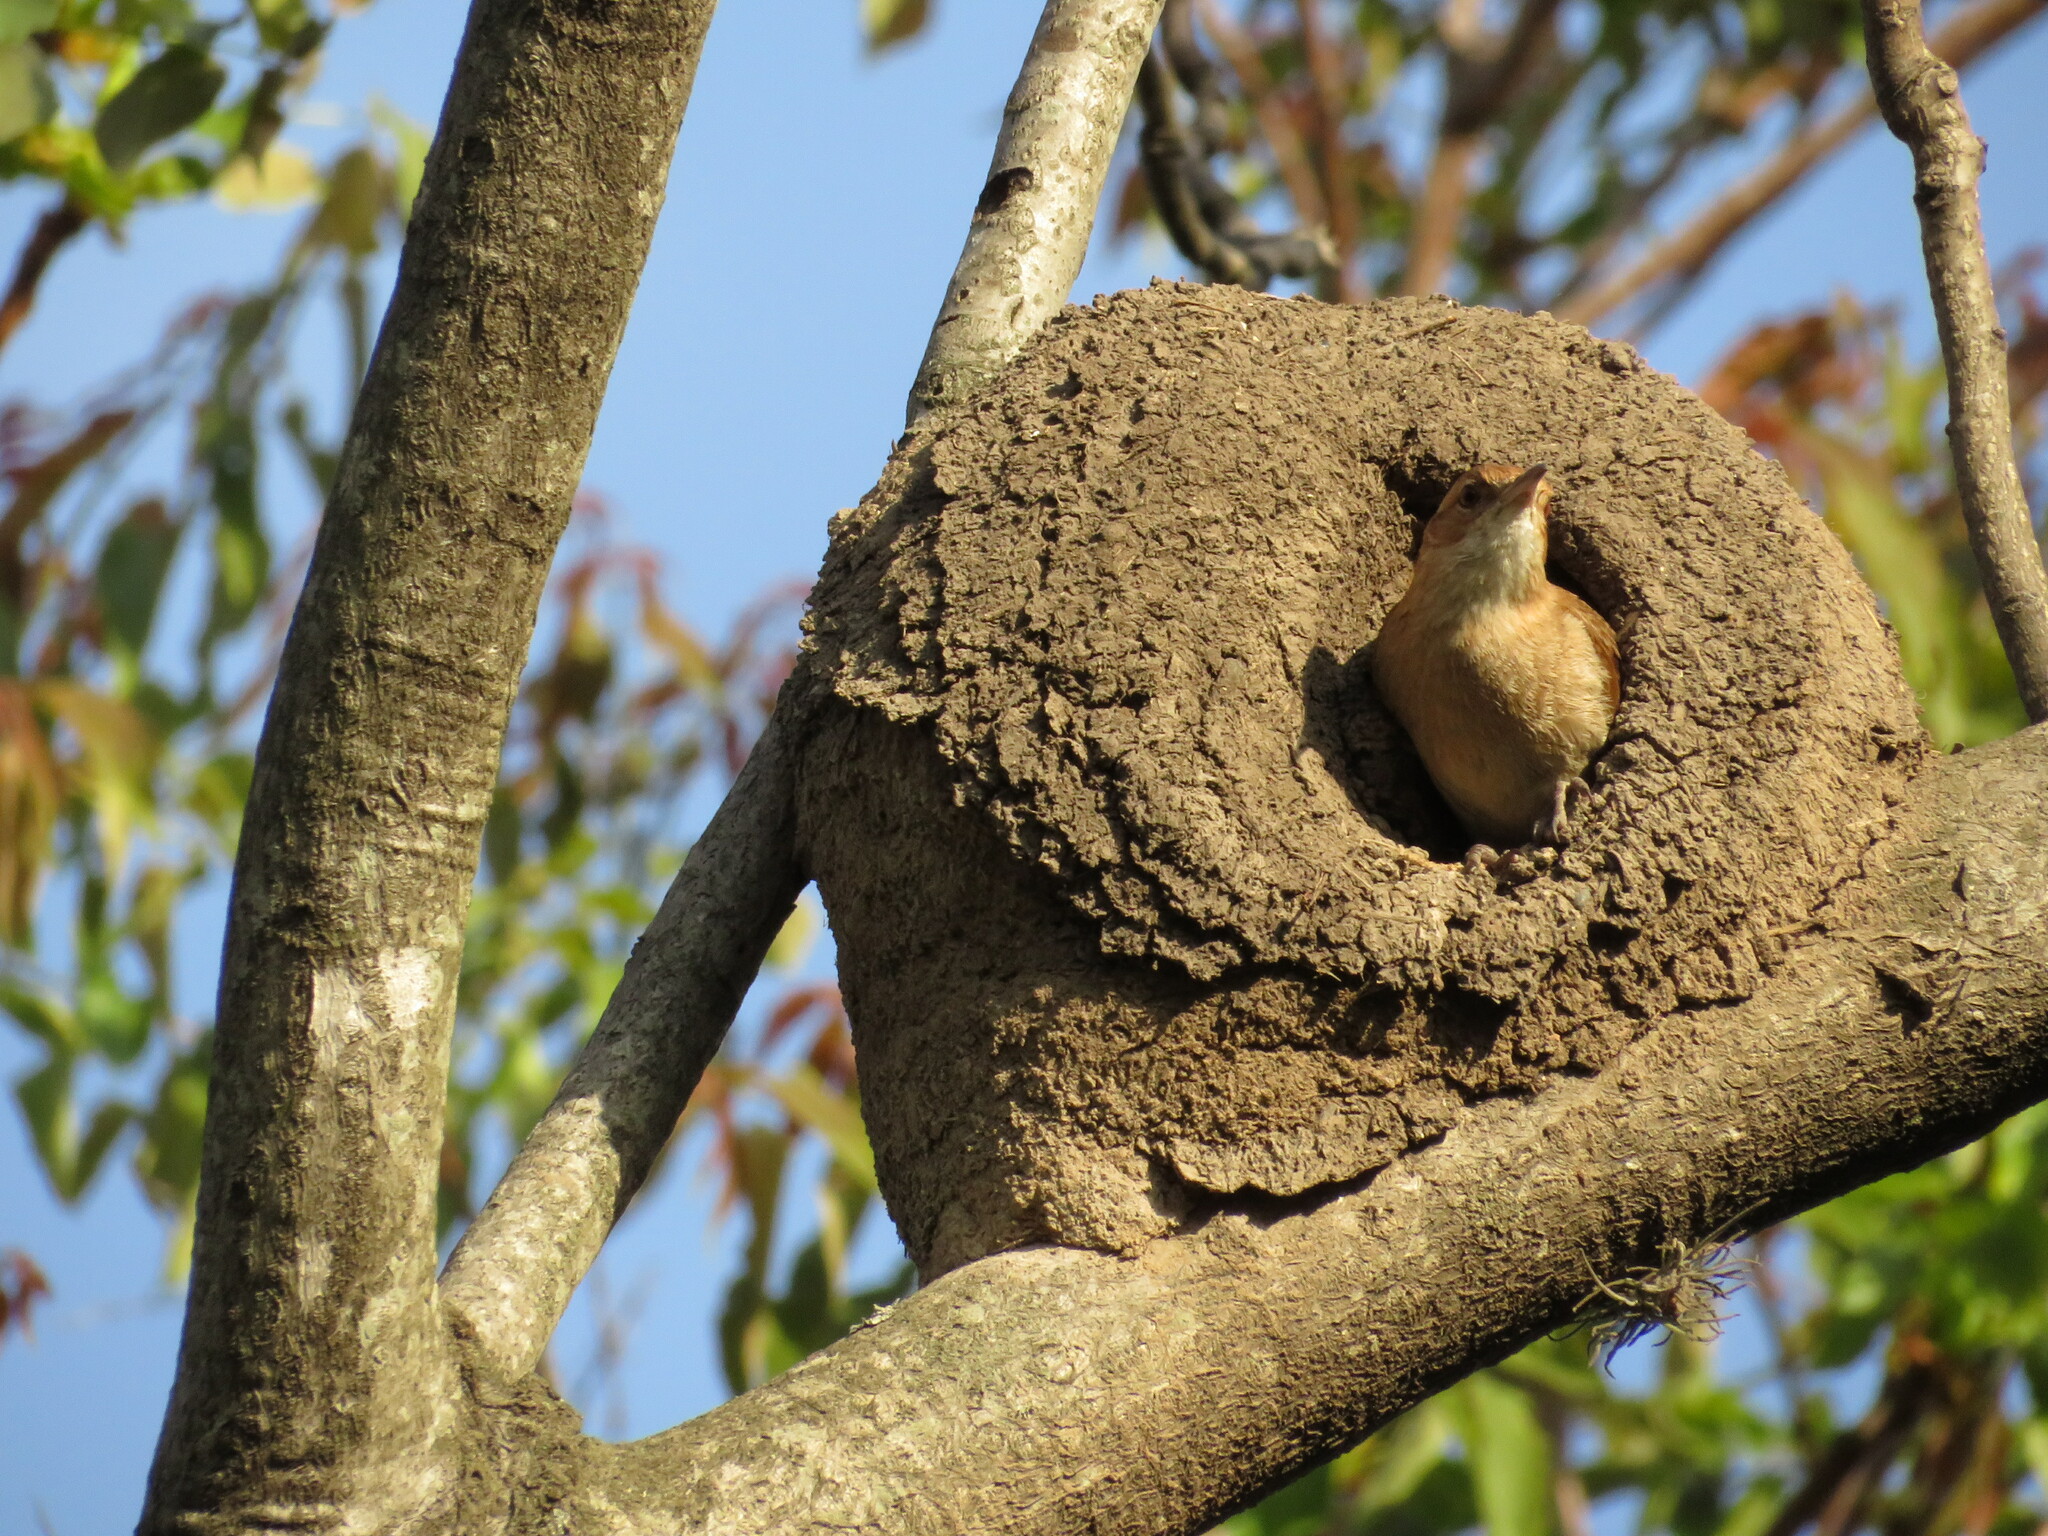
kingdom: Animalia
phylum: Chordata
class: Aves
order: Passeriformes
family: Furnariidae
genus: Furnarius
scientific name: Furnarius rufus
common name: Rufous hornero
